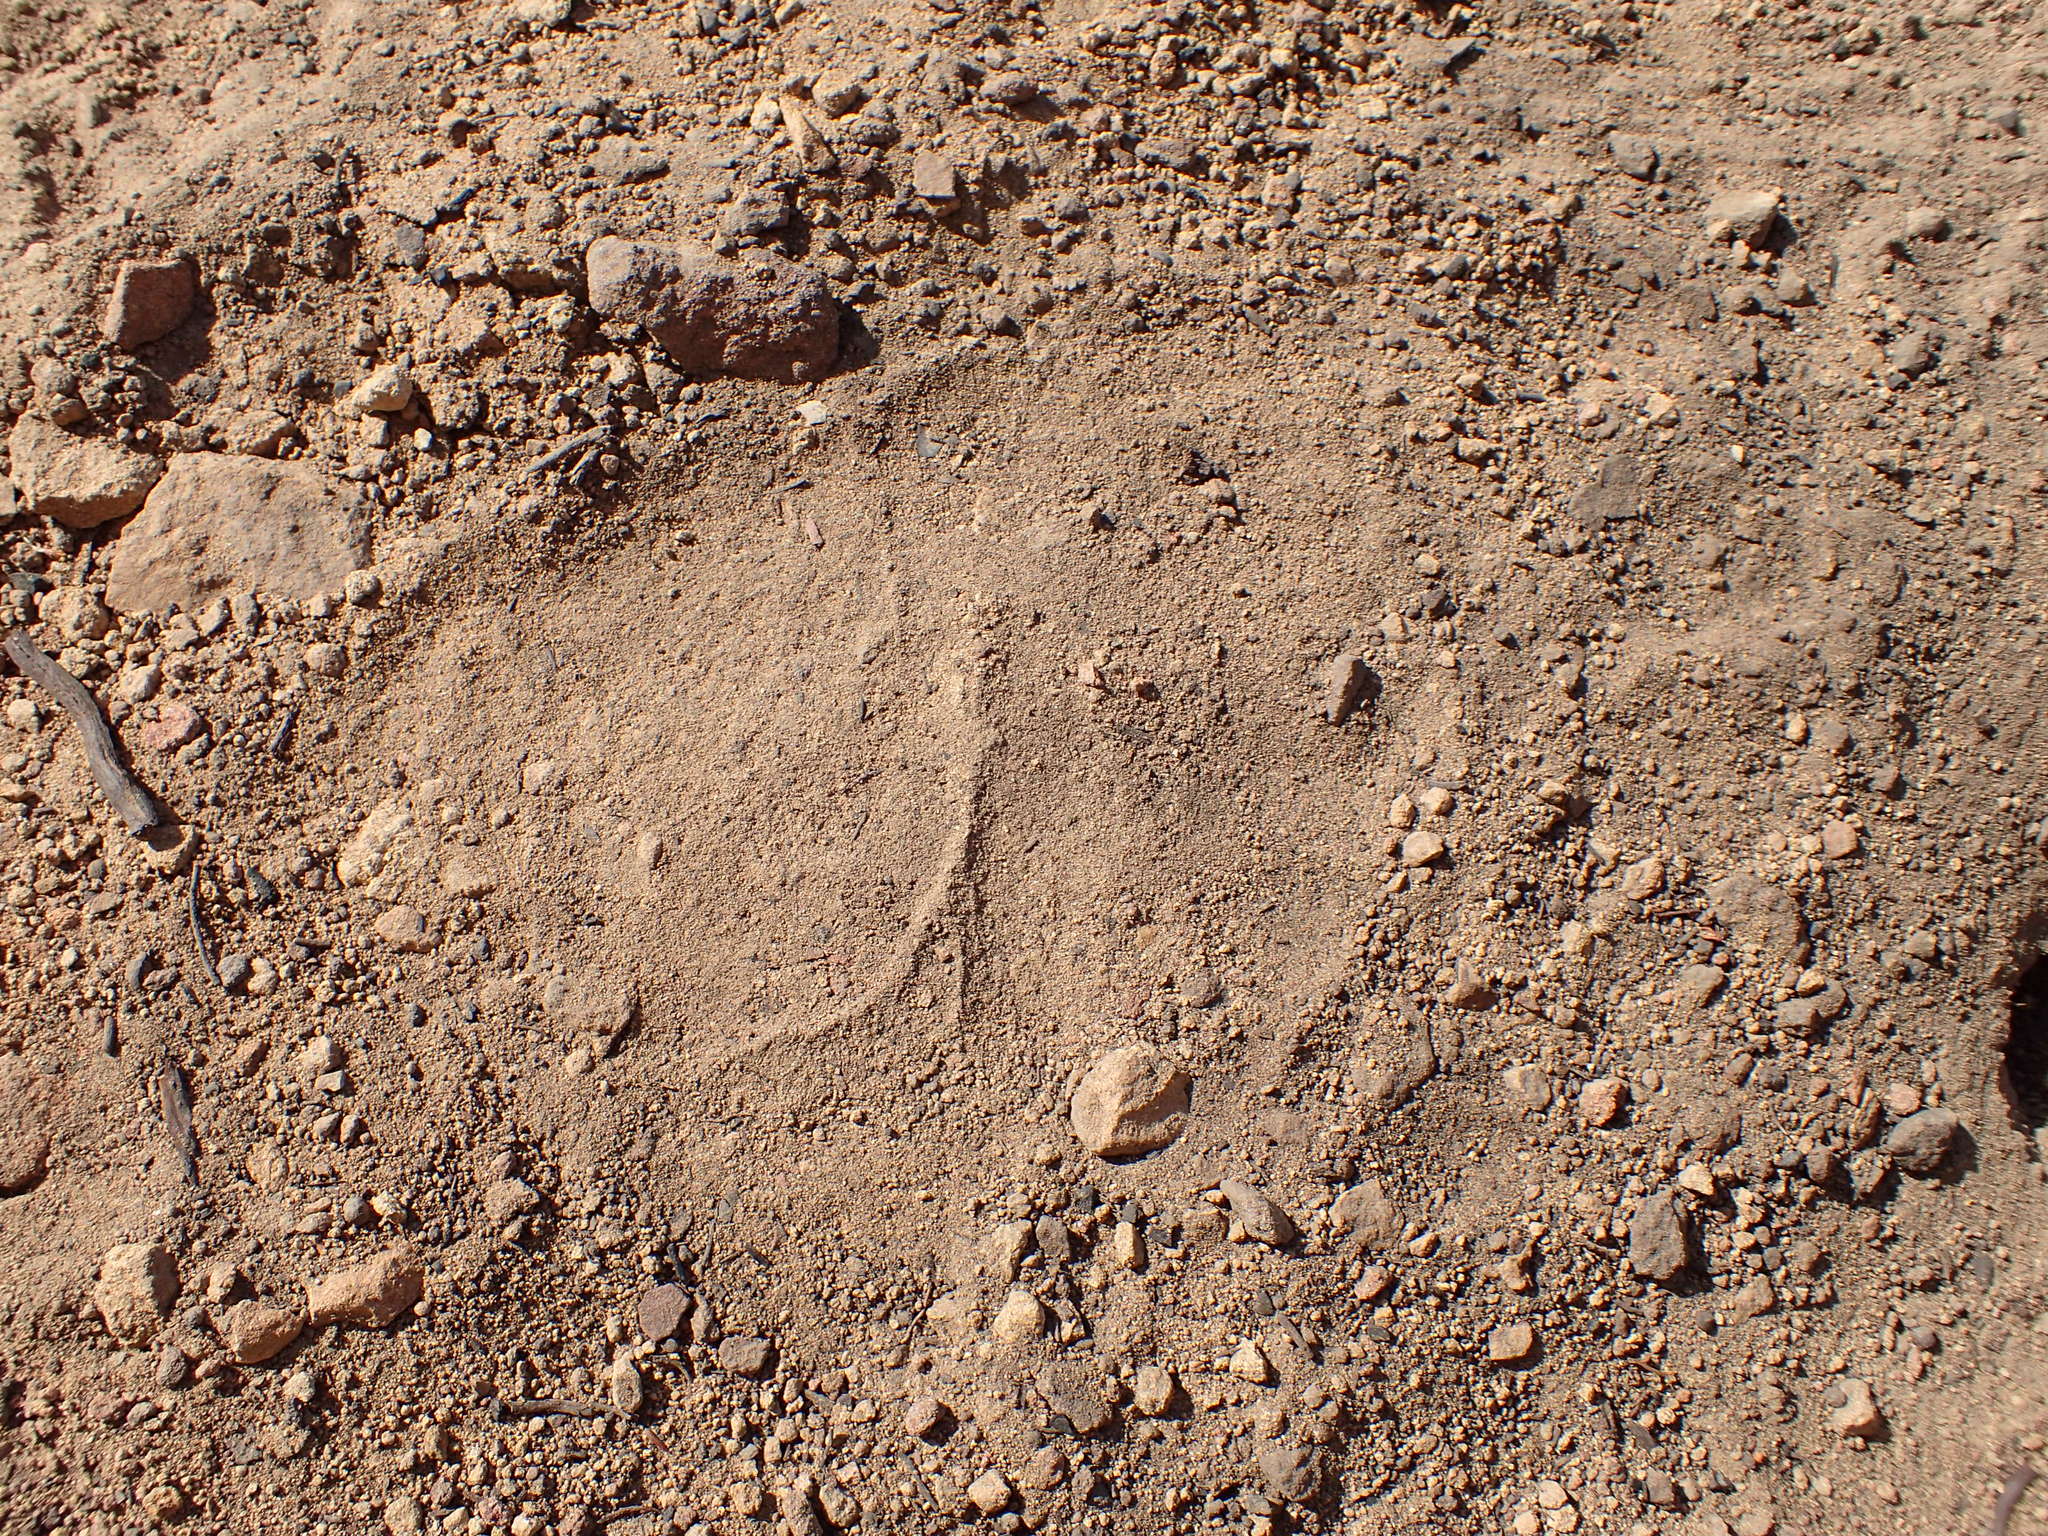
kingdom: Animalia
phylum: Chordata
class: Mammalia
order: Carnivora
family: Ursidae
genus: Ursus
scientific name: Ursus americanus
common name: American black bear
